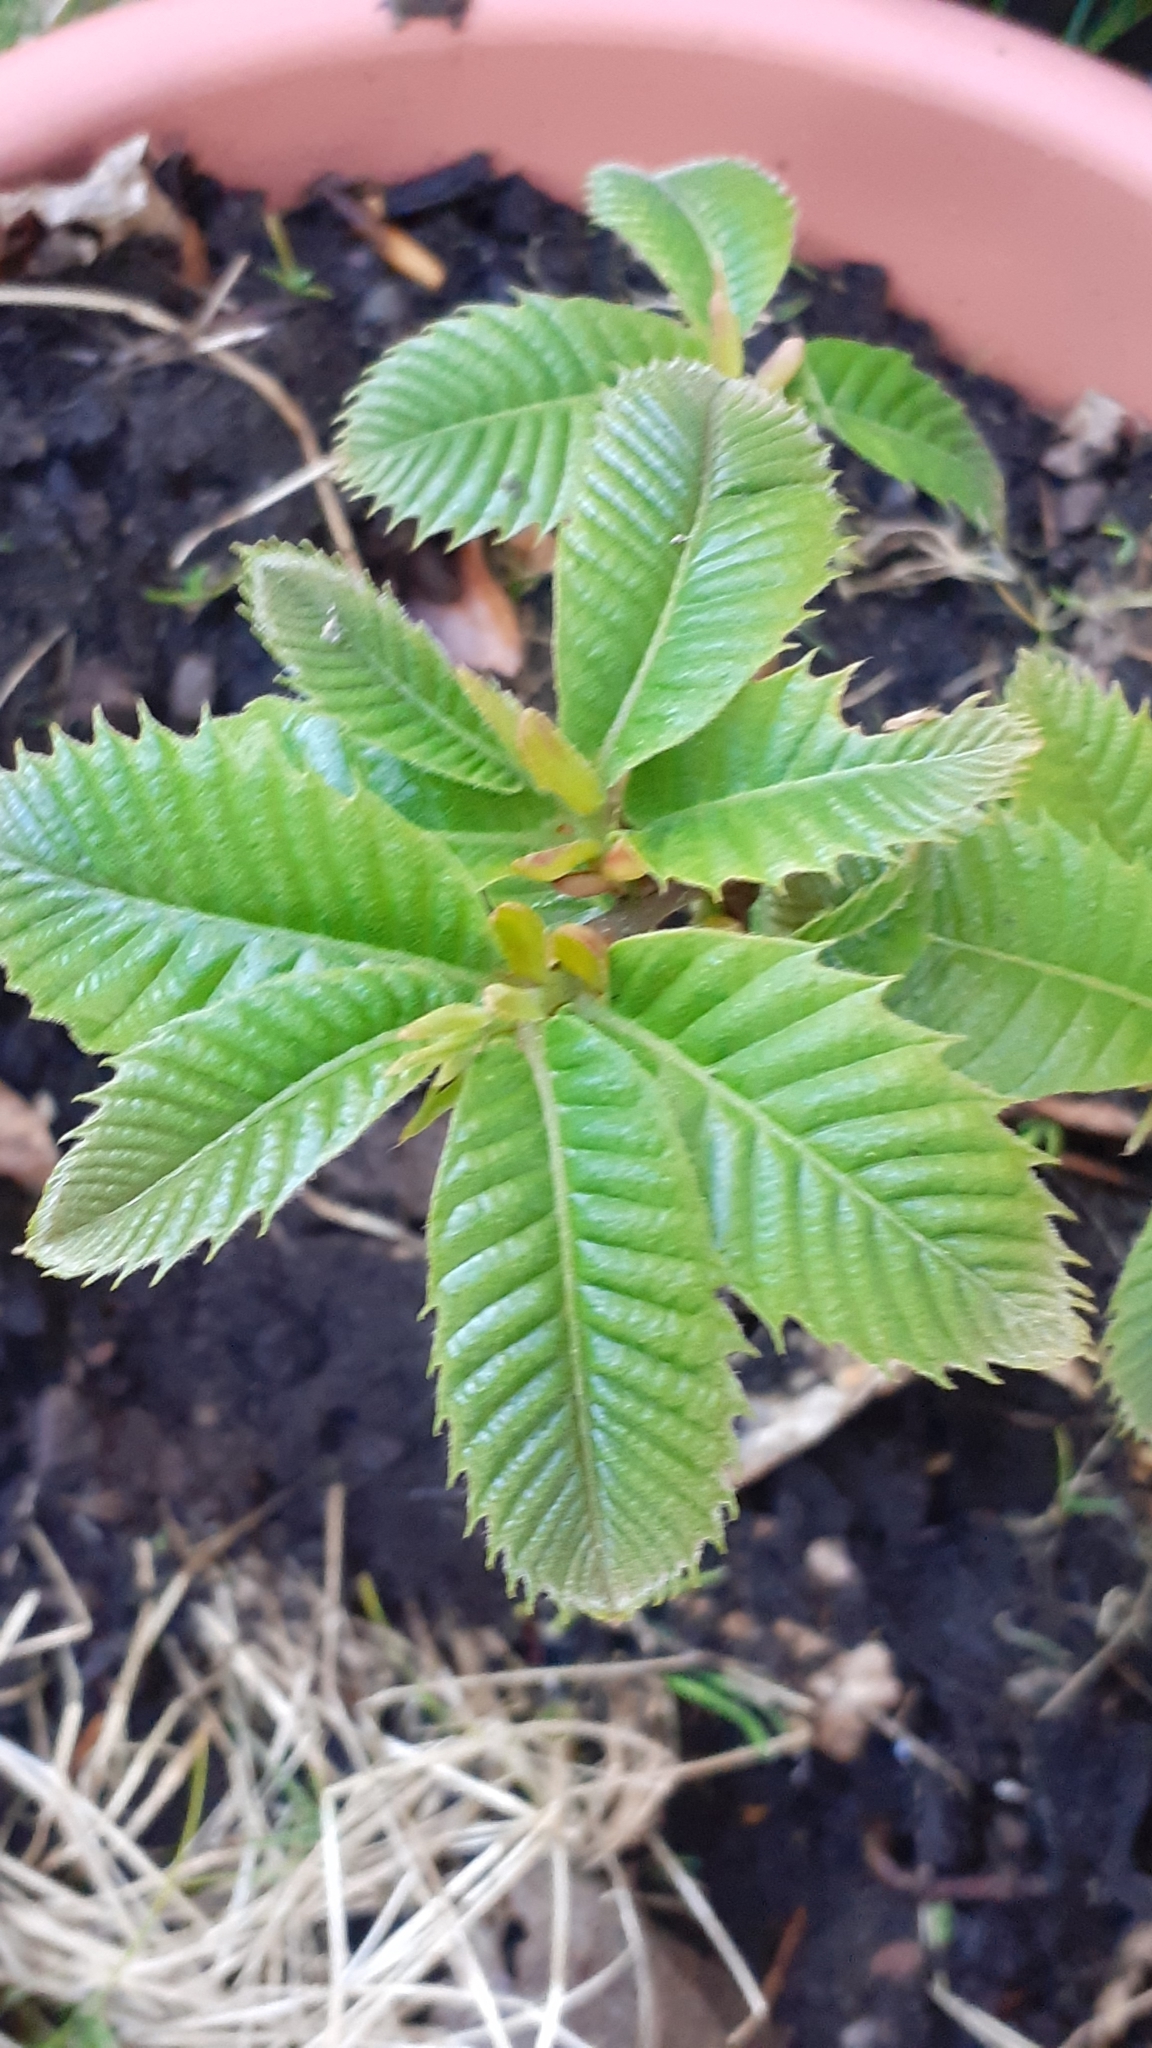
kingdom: Plantae
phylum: Tracheophyta
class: Magnoliopsida
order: Fagales
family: Fagaceae
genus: Castanea
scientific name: Castanea sativa
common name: Sweet chestnut
